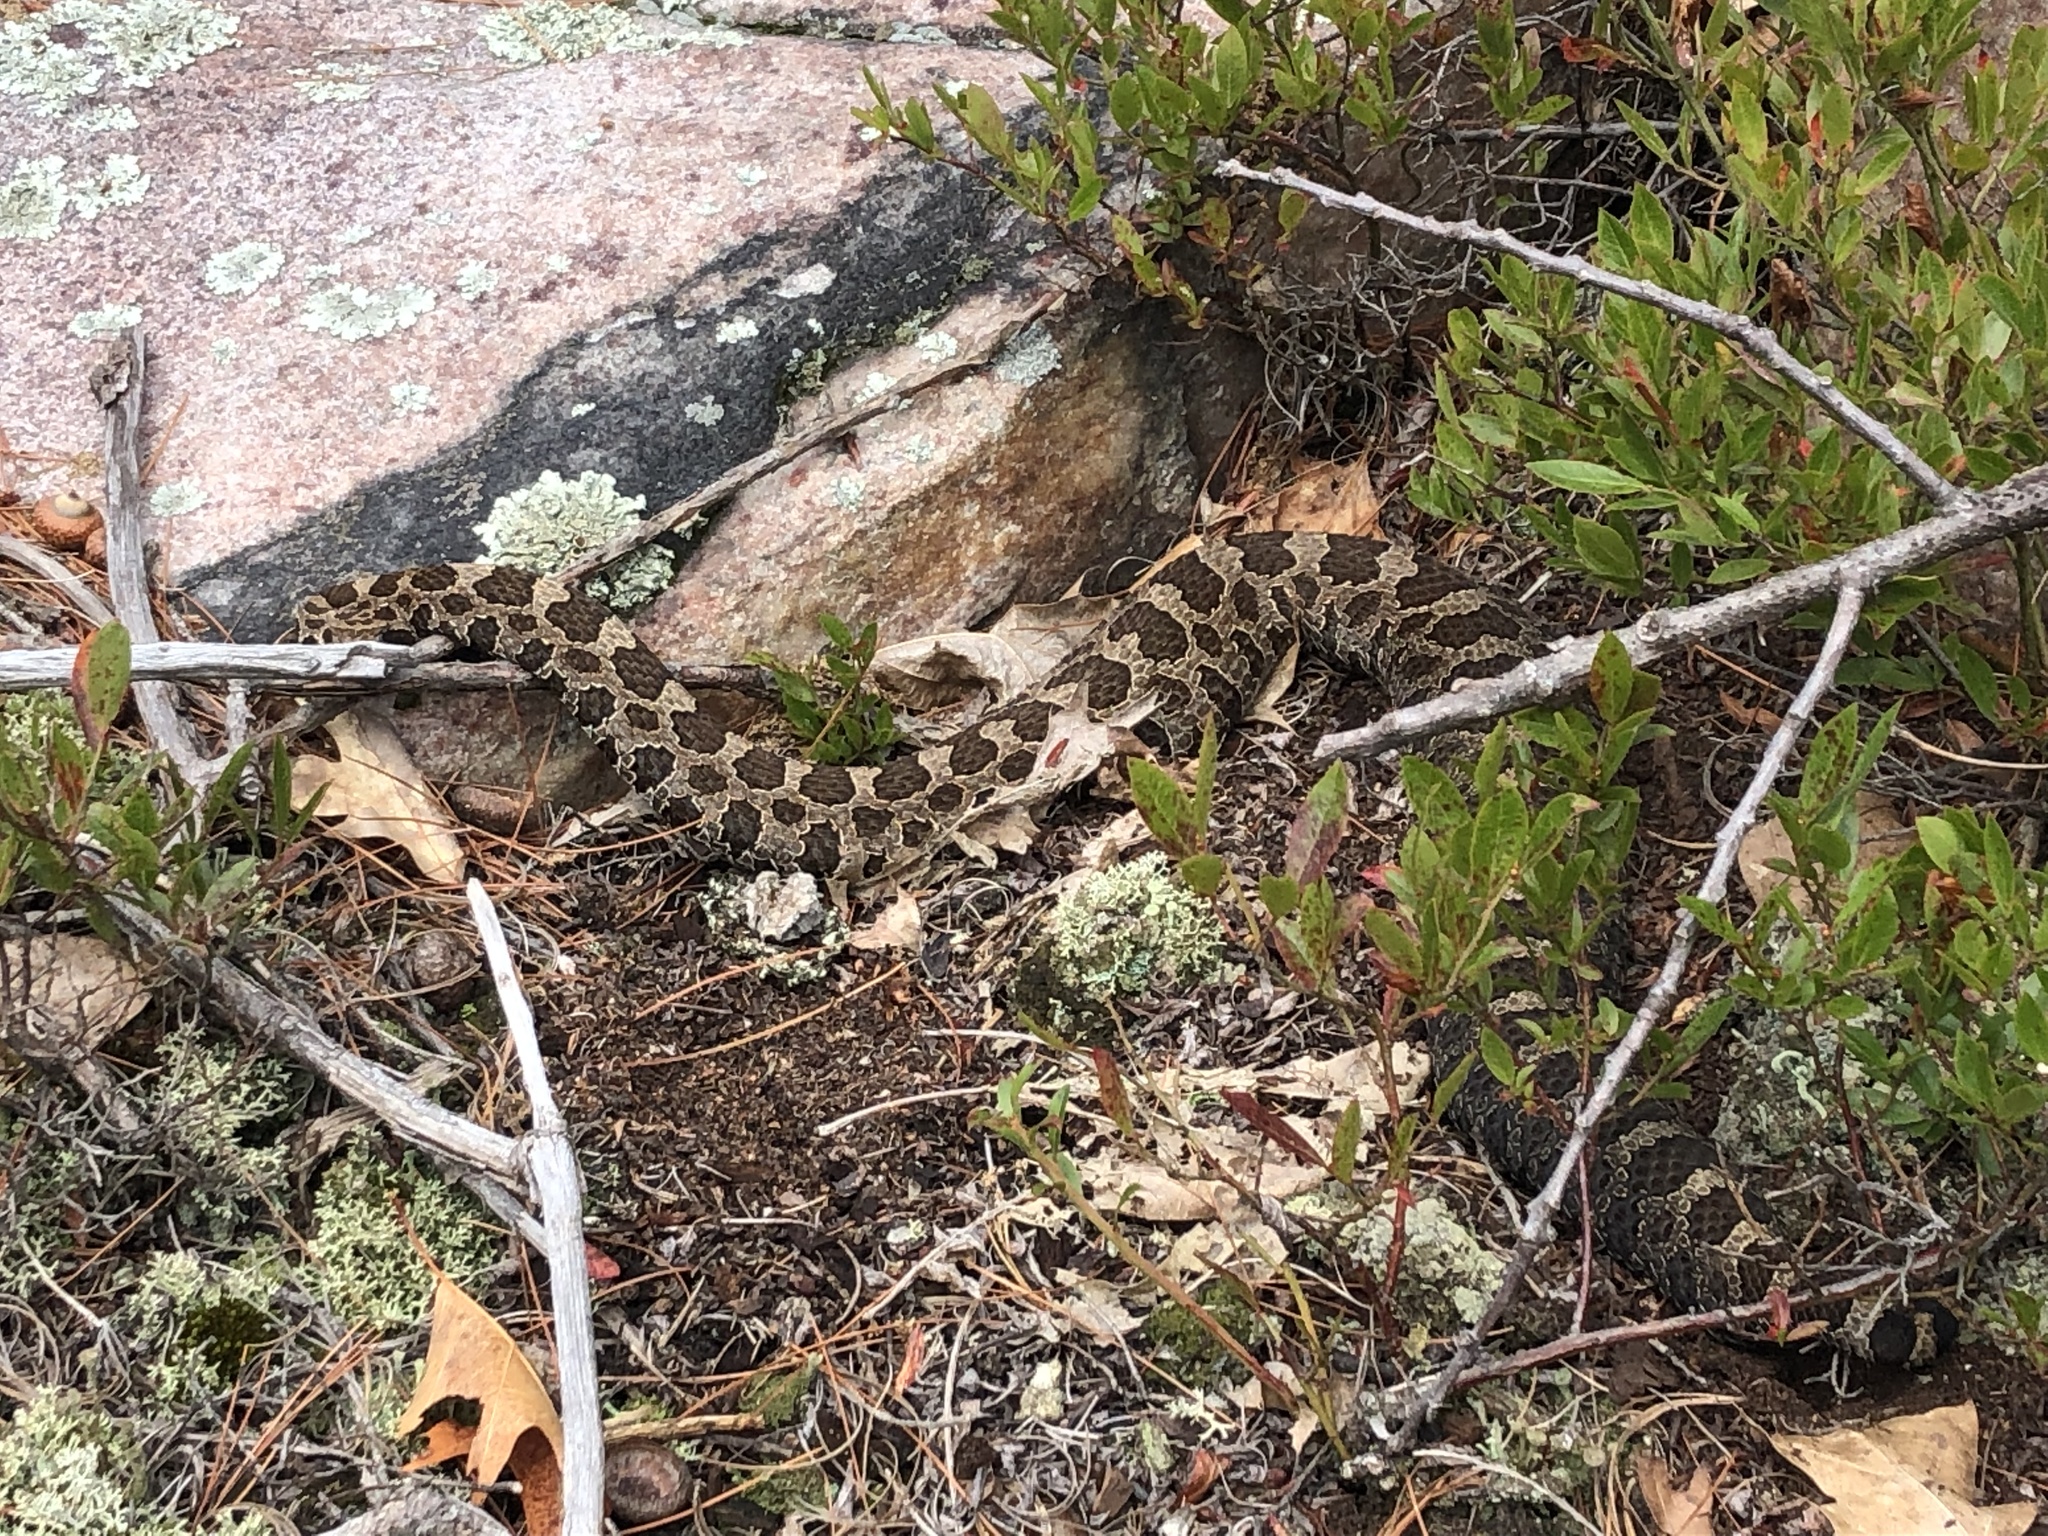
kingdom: Animalia
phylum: Chordata
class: Squamata
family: Viperidae
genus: Sistrurus
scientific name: Sistrurus catenatus
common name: Massasauga
